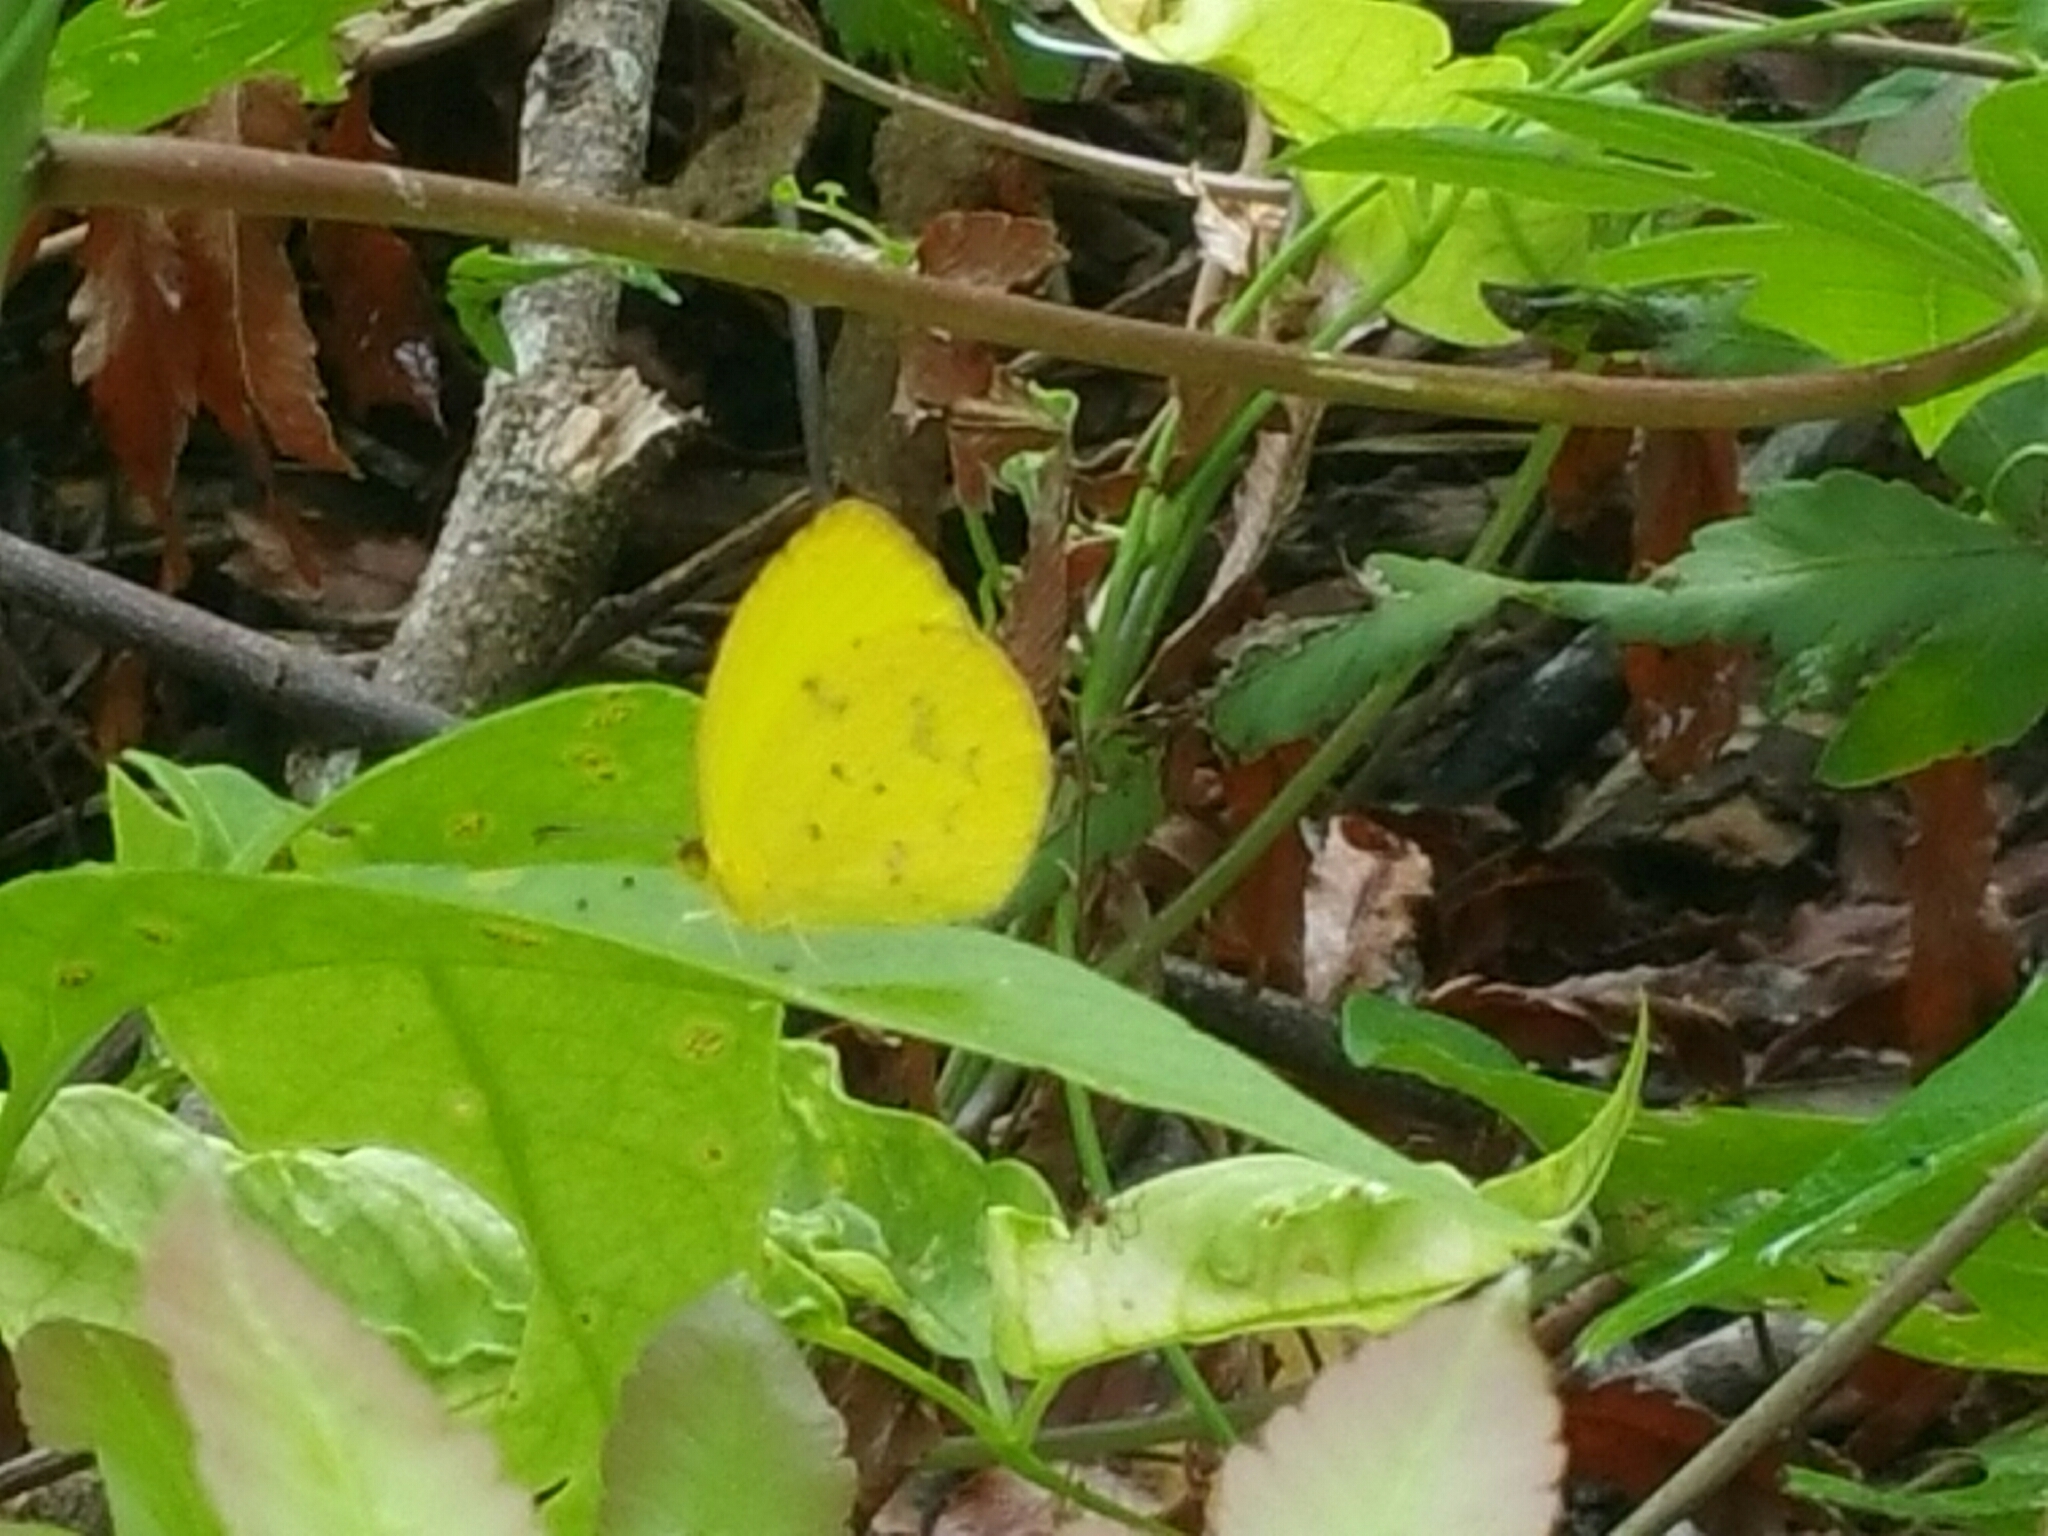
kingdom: Animalia
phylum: Arthropoda
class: Insecta
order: Lepidoptera
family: Pieridae
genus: Pyrisitia
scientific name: Pyrisitia dina
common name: Dina yellow
